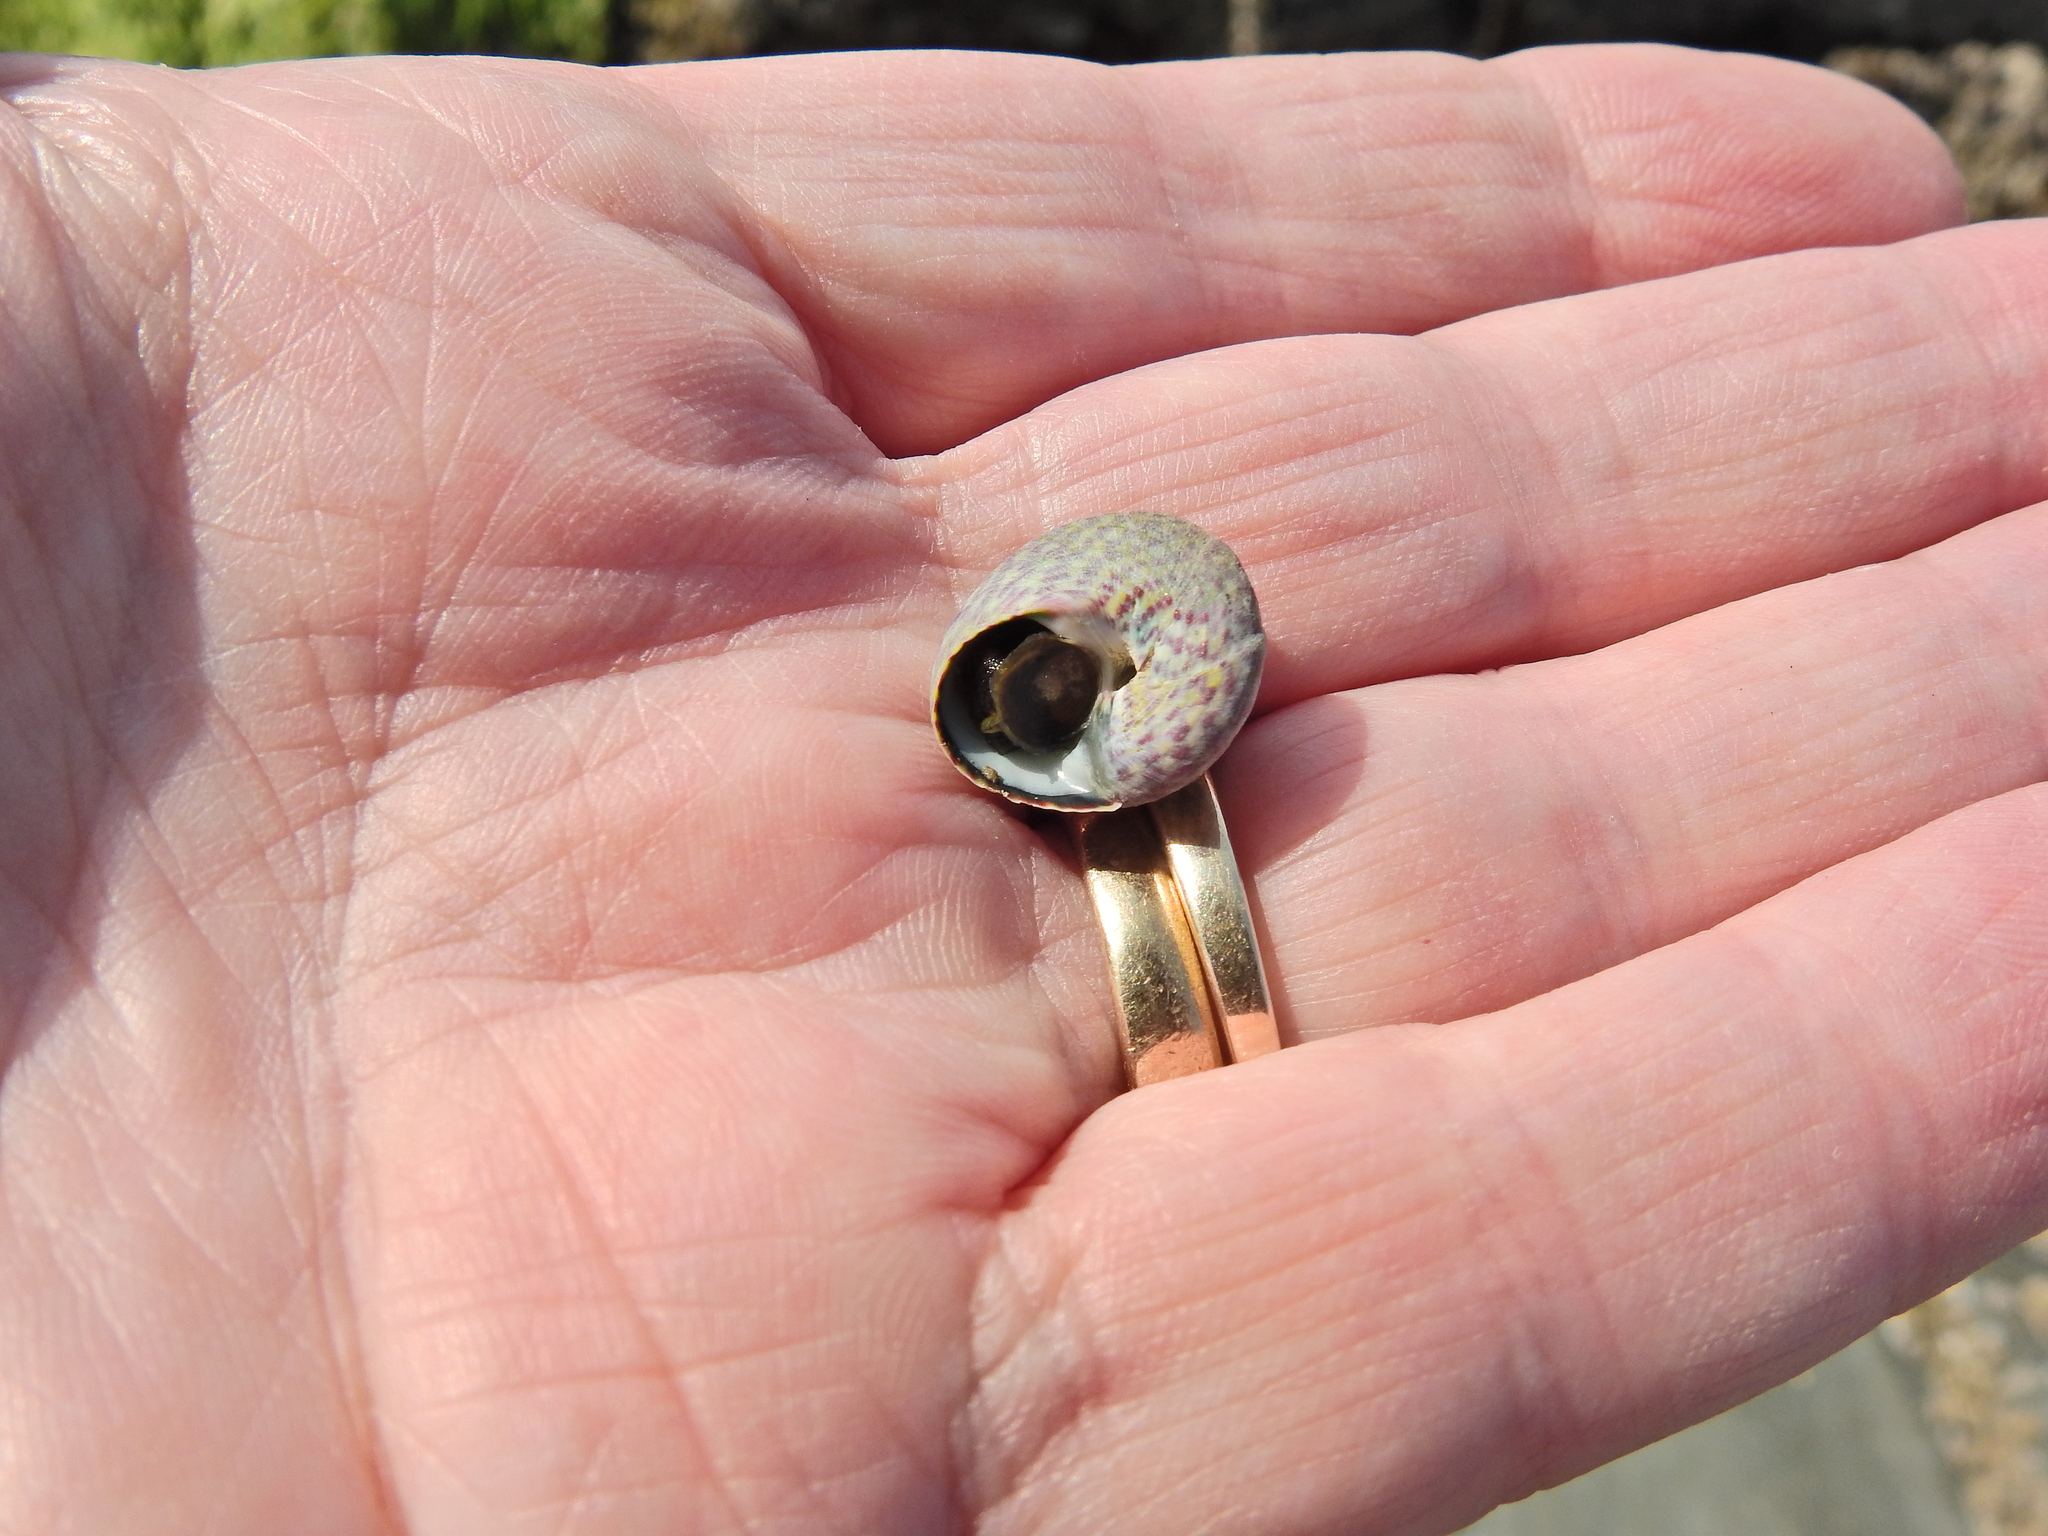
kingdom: Animalia
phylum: Mollusca
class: Gastropoda
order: Trochida
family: Trochidae
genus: Steromphala
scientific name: Steromphala umbilicalis
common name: Flat top shell
